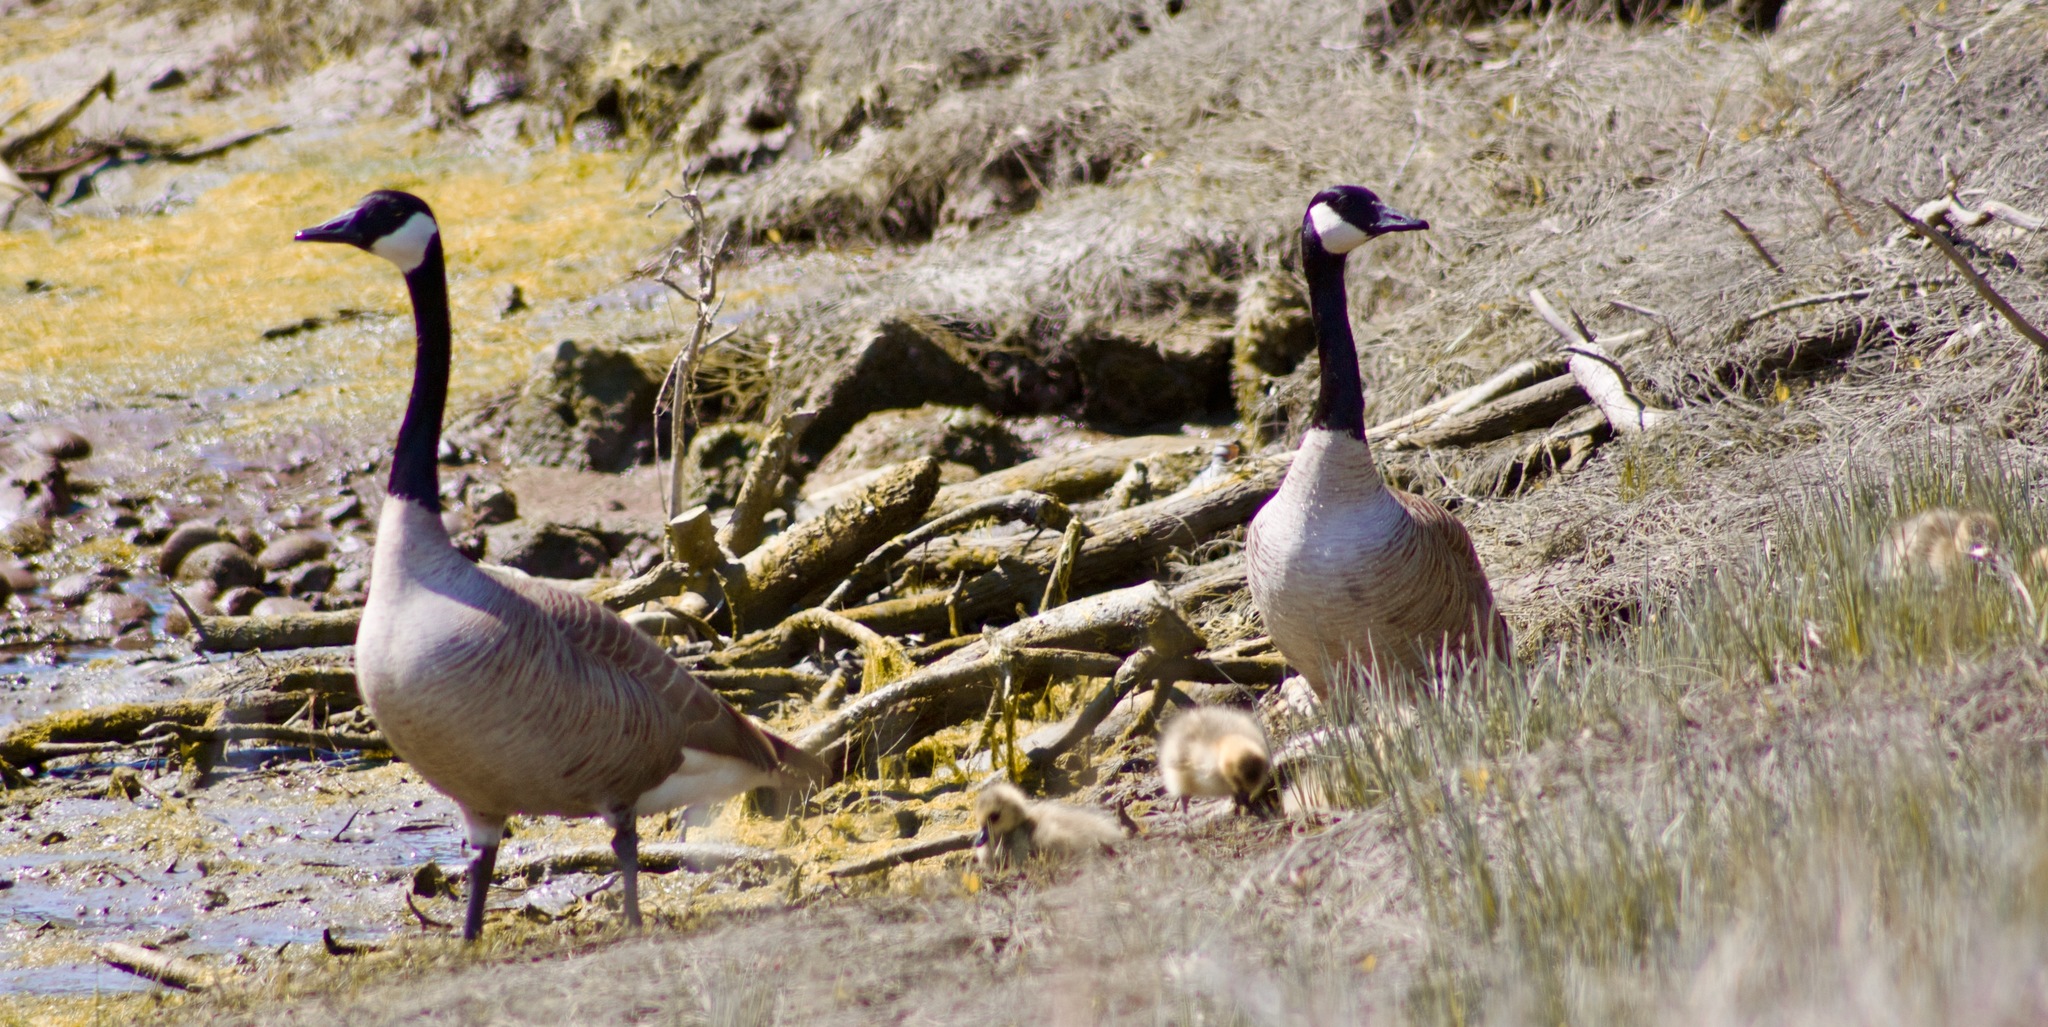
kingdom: Animalia
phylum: Chordata
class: Aves
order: Anseriformes
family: Anatidae
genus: Branta
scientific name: Branta canadensis
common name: Canada goose
